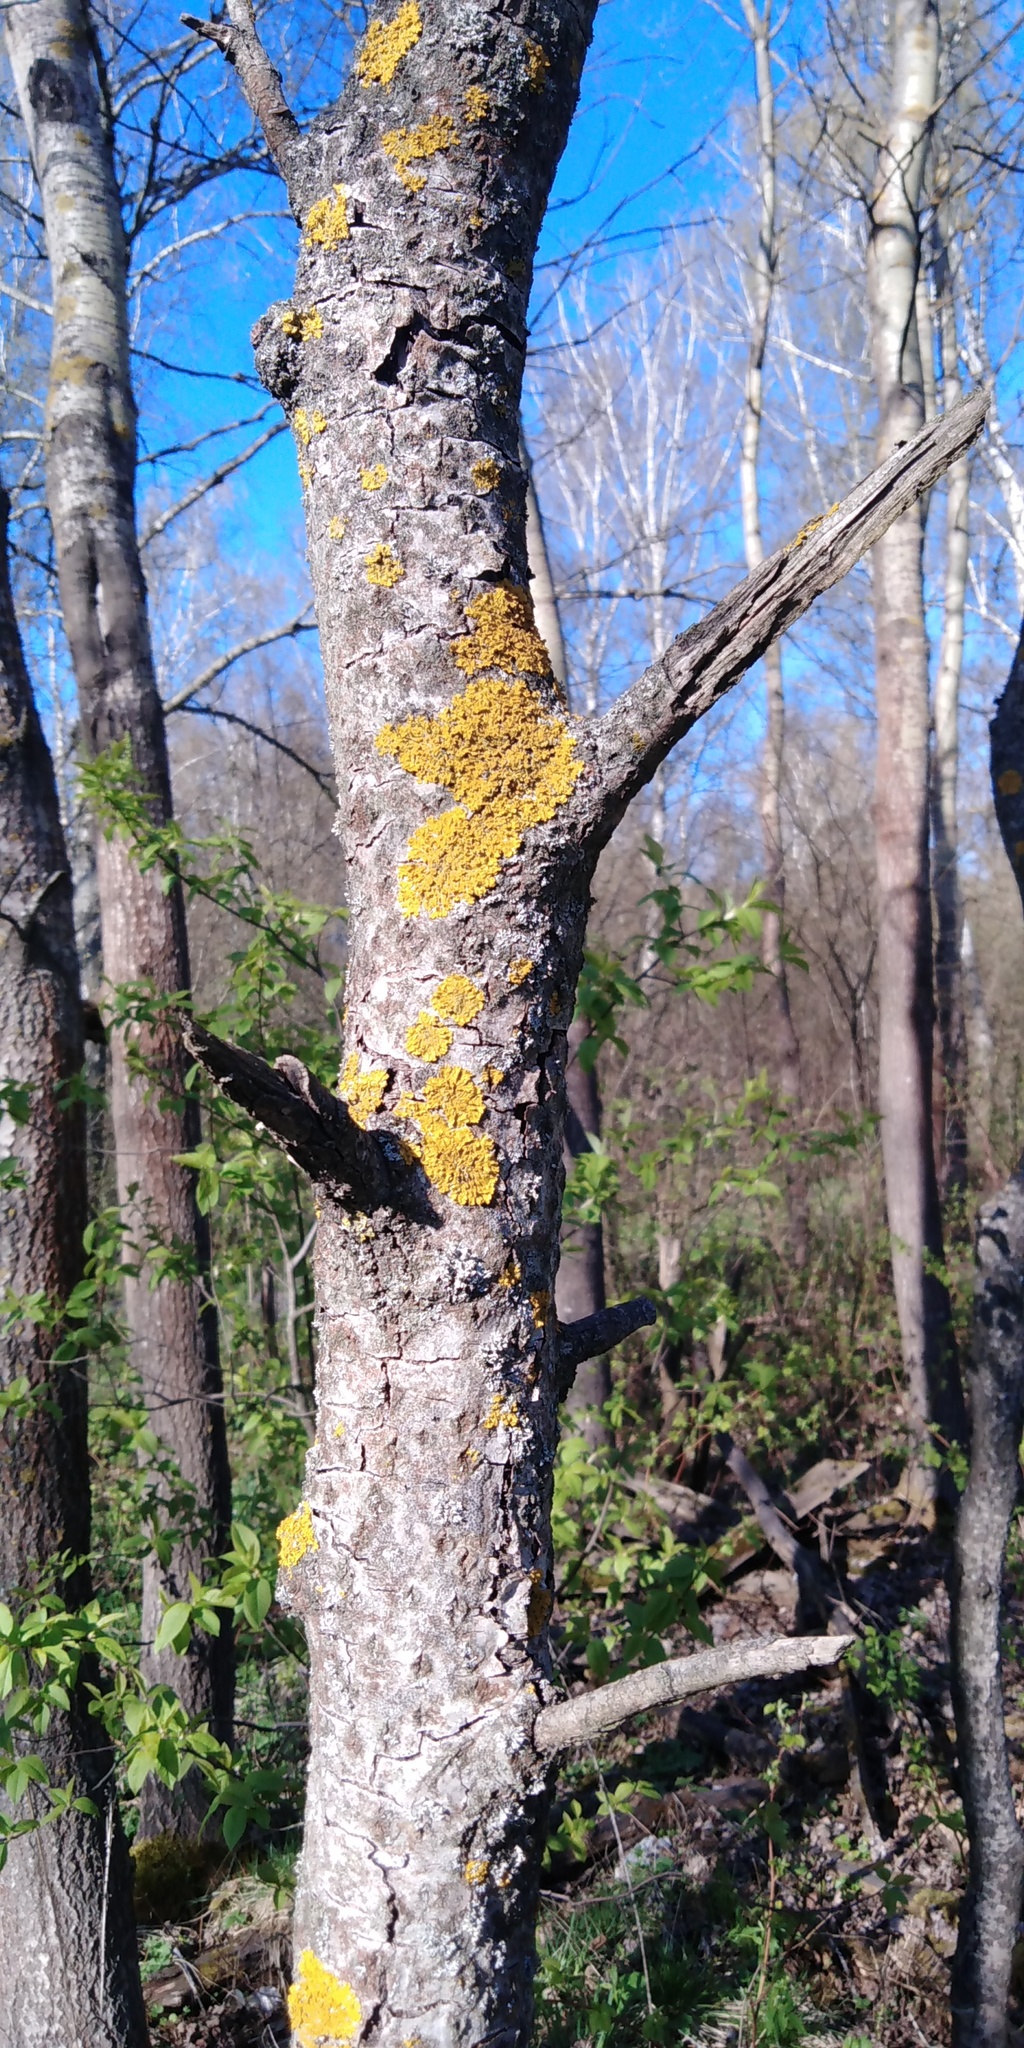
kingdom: Fungi
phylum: Ascomycota
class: Lecanoromycetes
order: Teloschistales
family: Teloschistaceae
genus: Xanthoria
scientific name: Xanthoria parietina
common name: Common orange lichen
